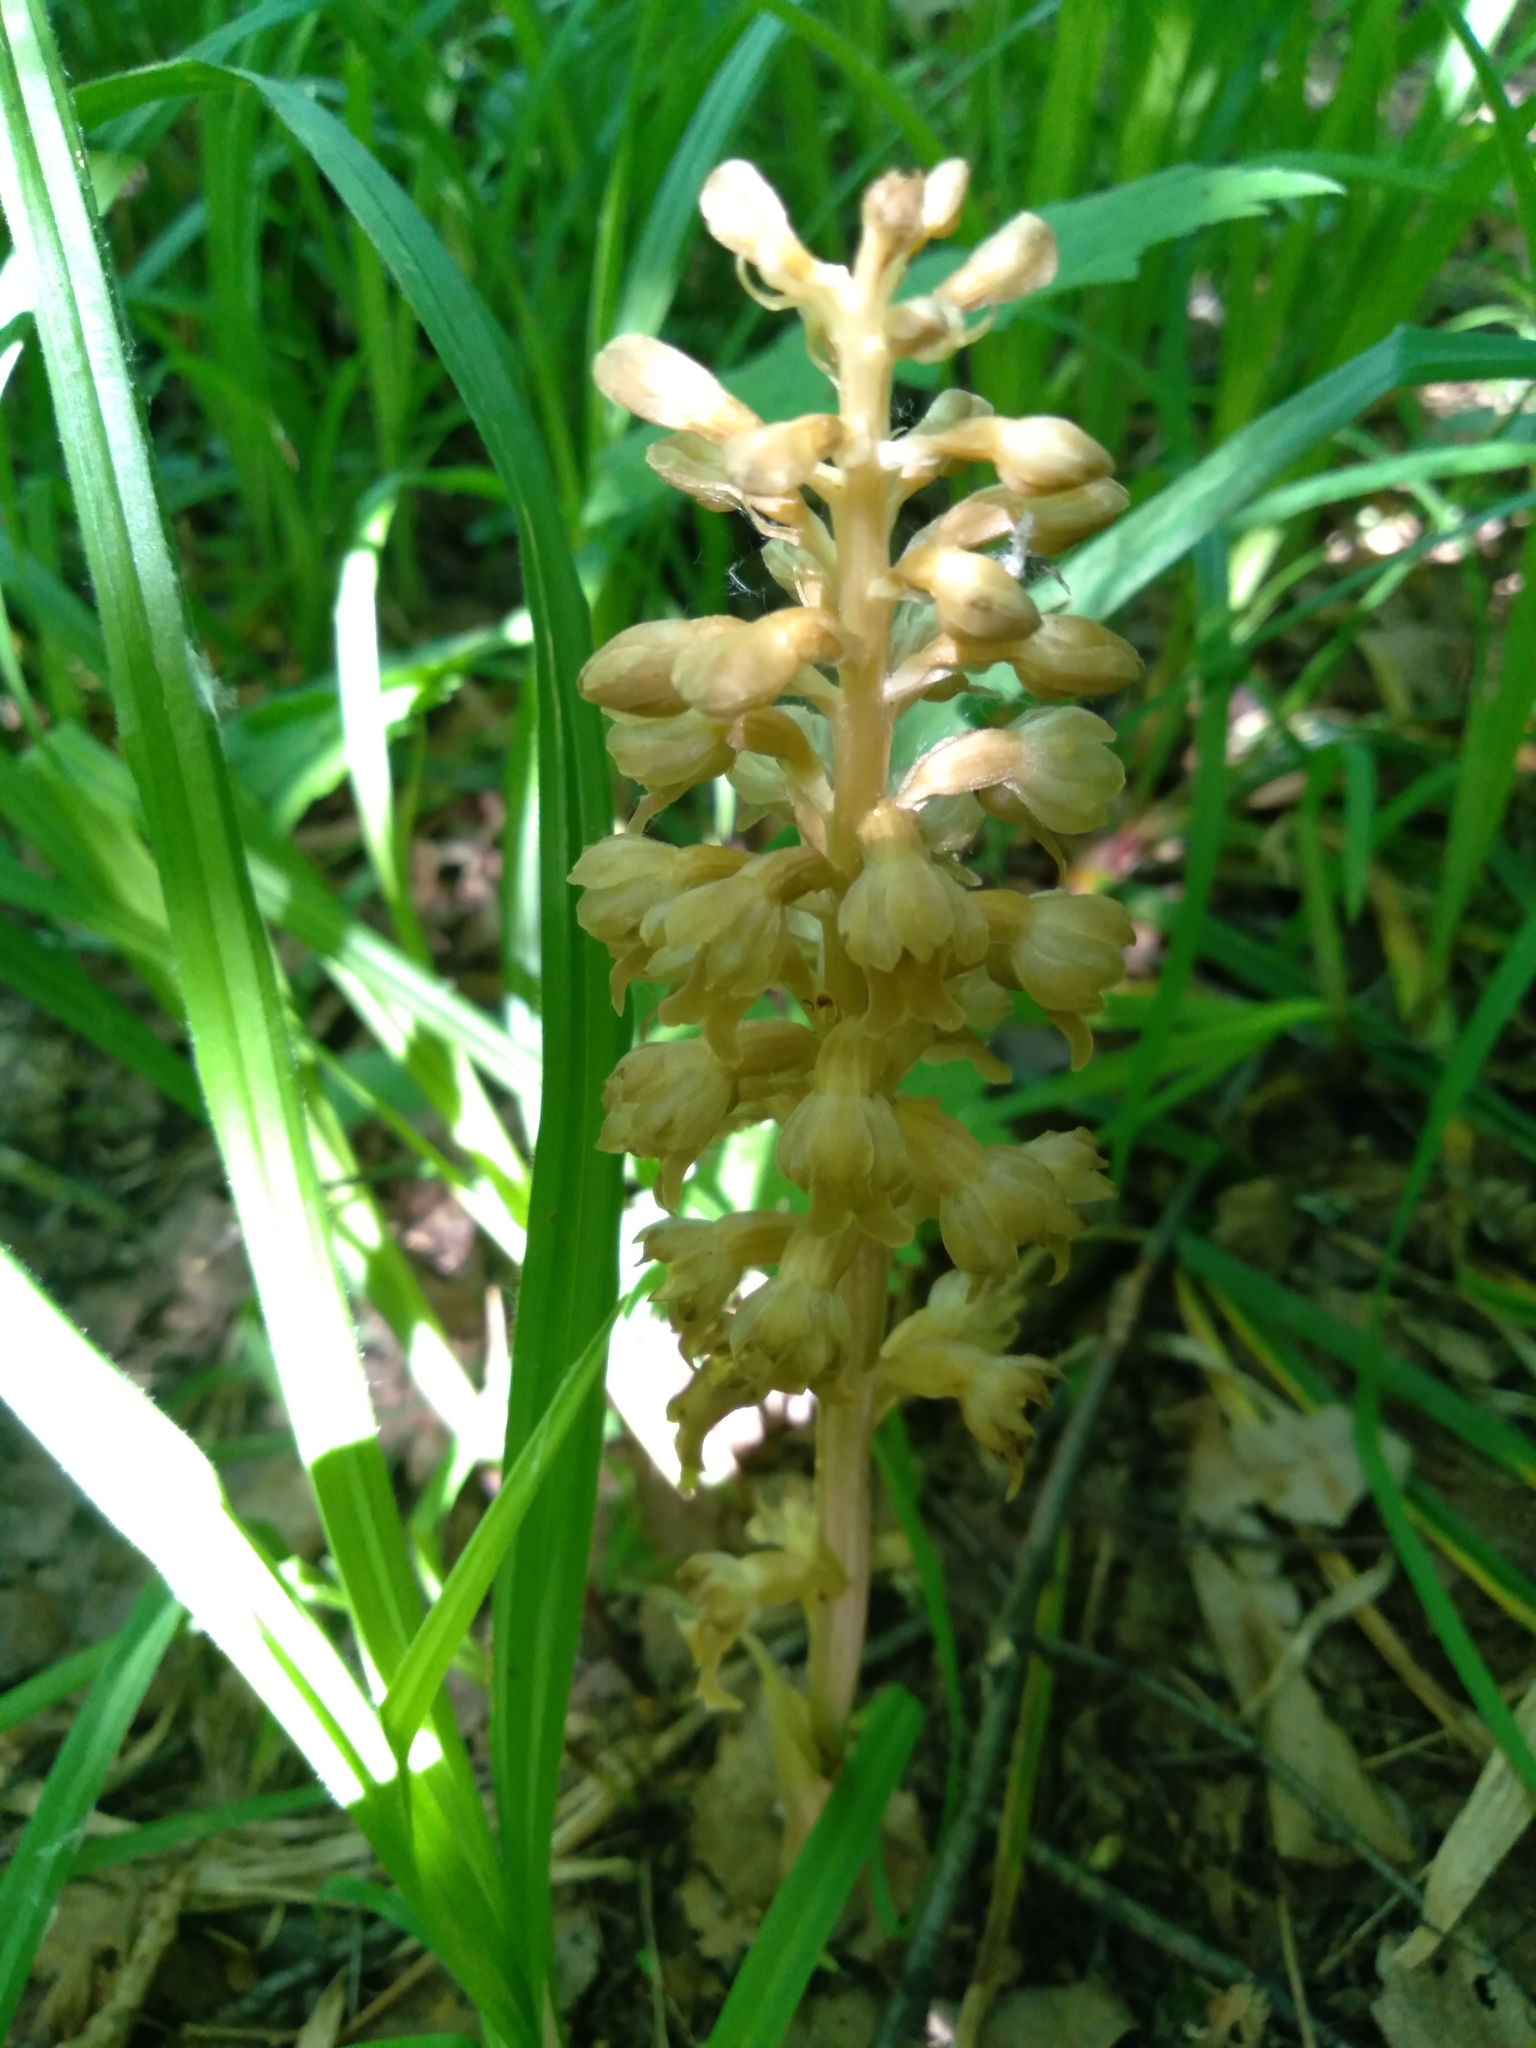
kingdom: Plantae
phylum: Tracheophyta
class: Liliopsida
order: Asparagales
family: Orchidaceae
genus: Neottia
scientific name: Neottia nidus-avis
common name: Bird's-nest orchid
